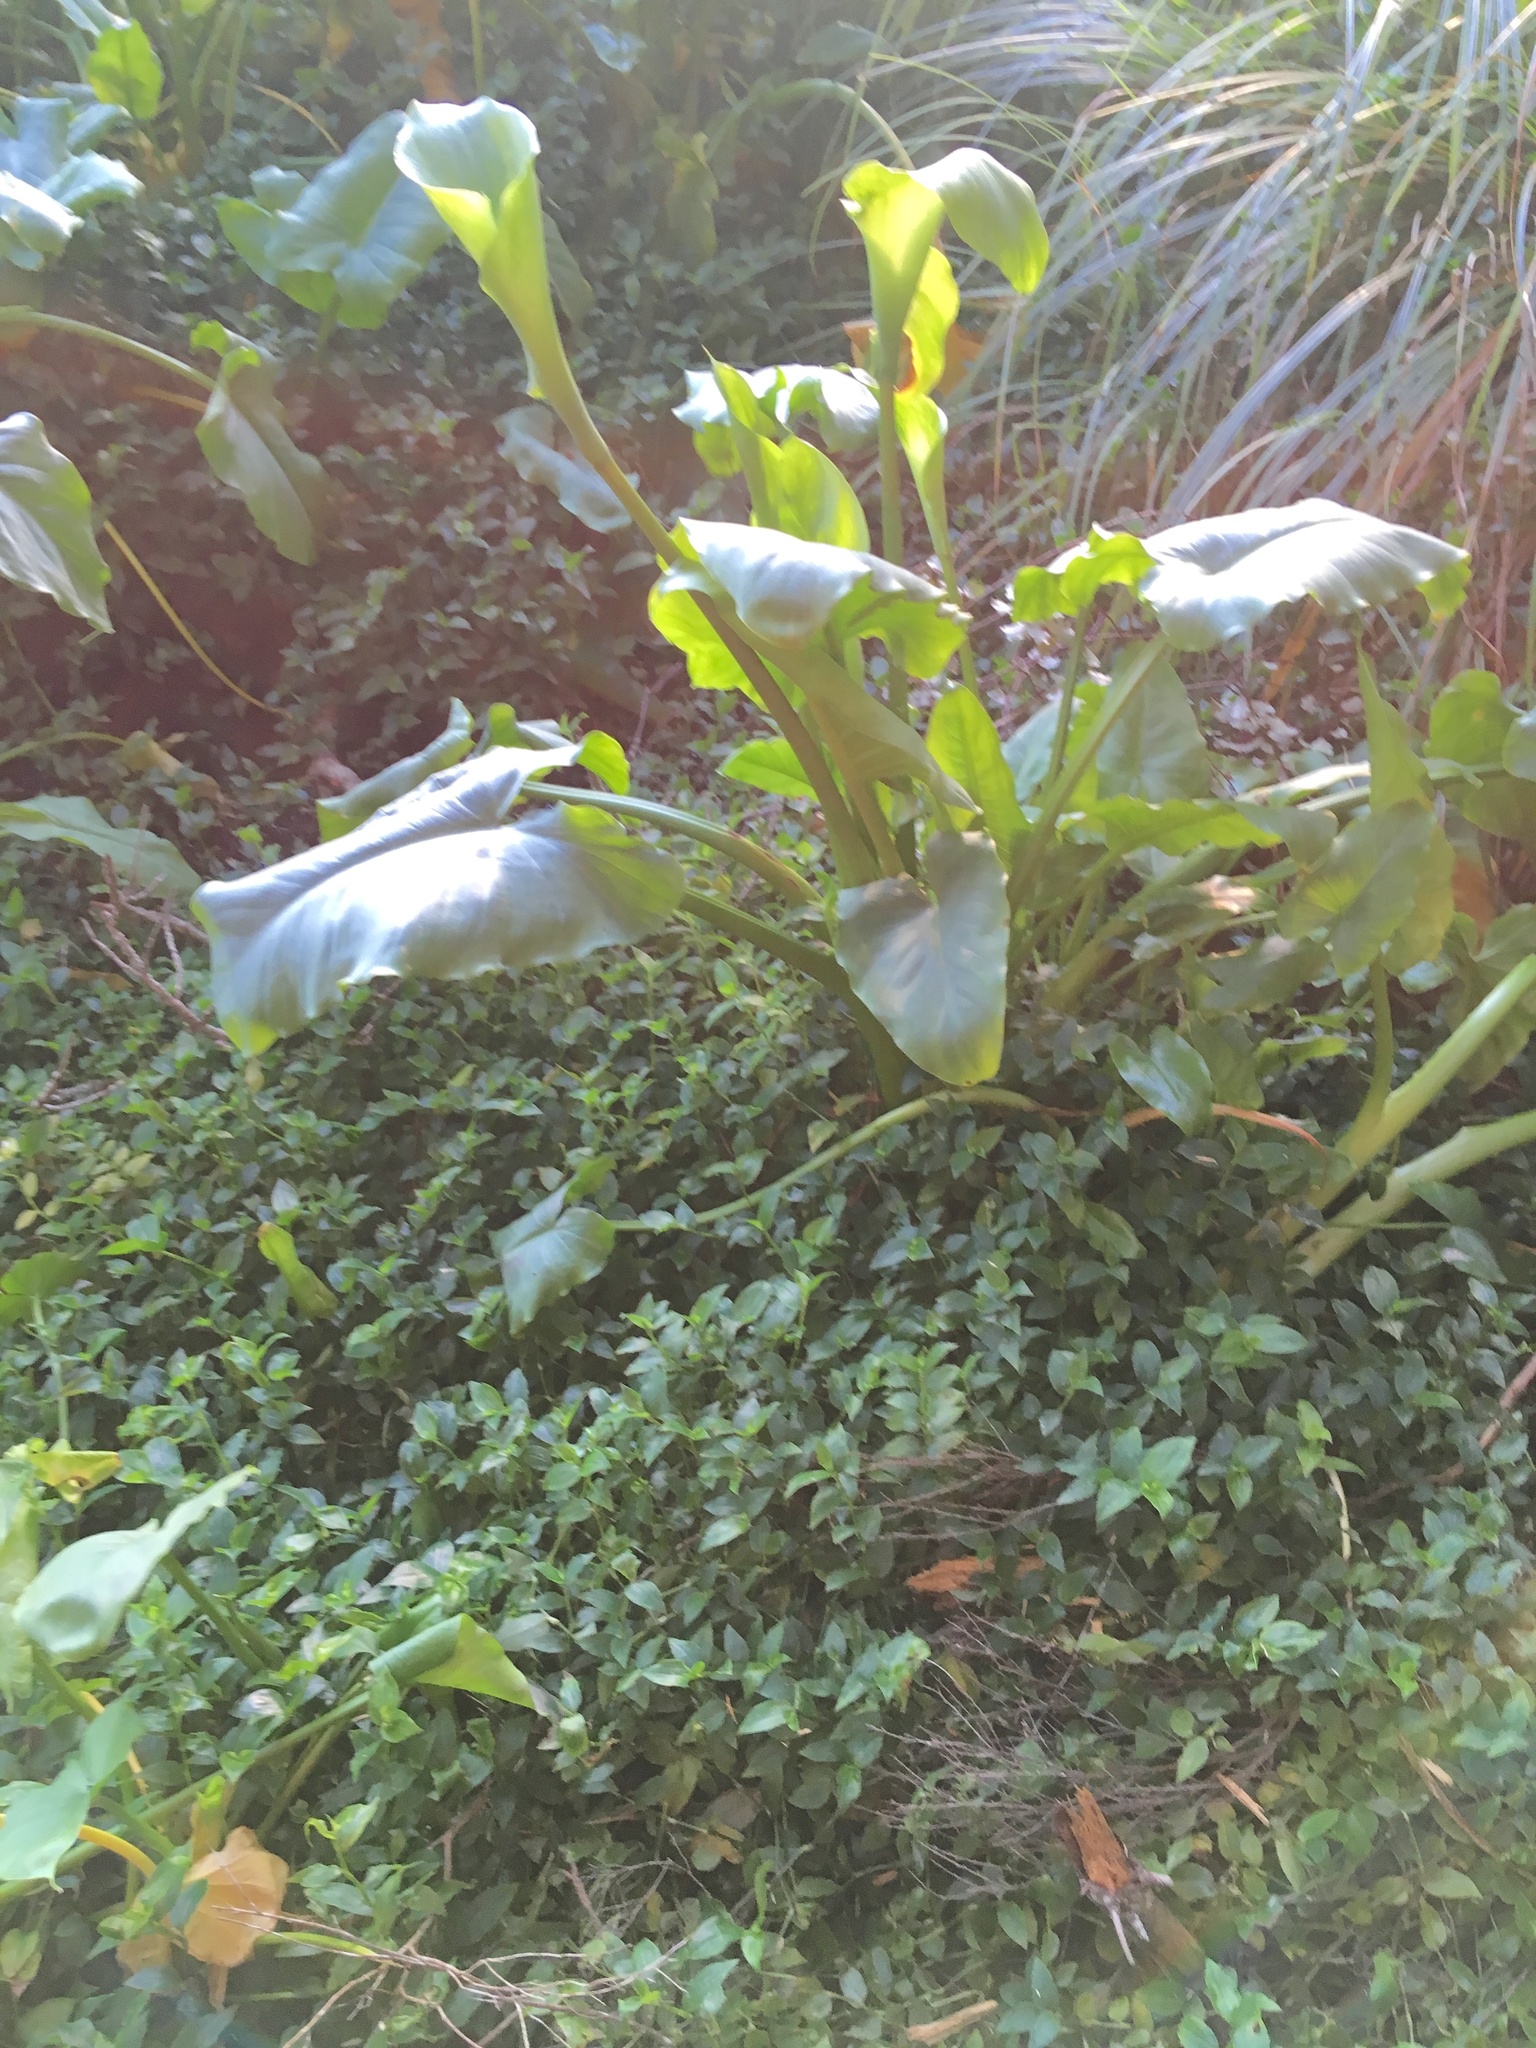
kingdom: Plantae
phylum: Tracheophyta
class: Liliopsida
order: Commelinales
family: Commelinaceae
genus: Tradescantia
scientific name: Tradescantia fluminensis
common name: Wandering-jew
